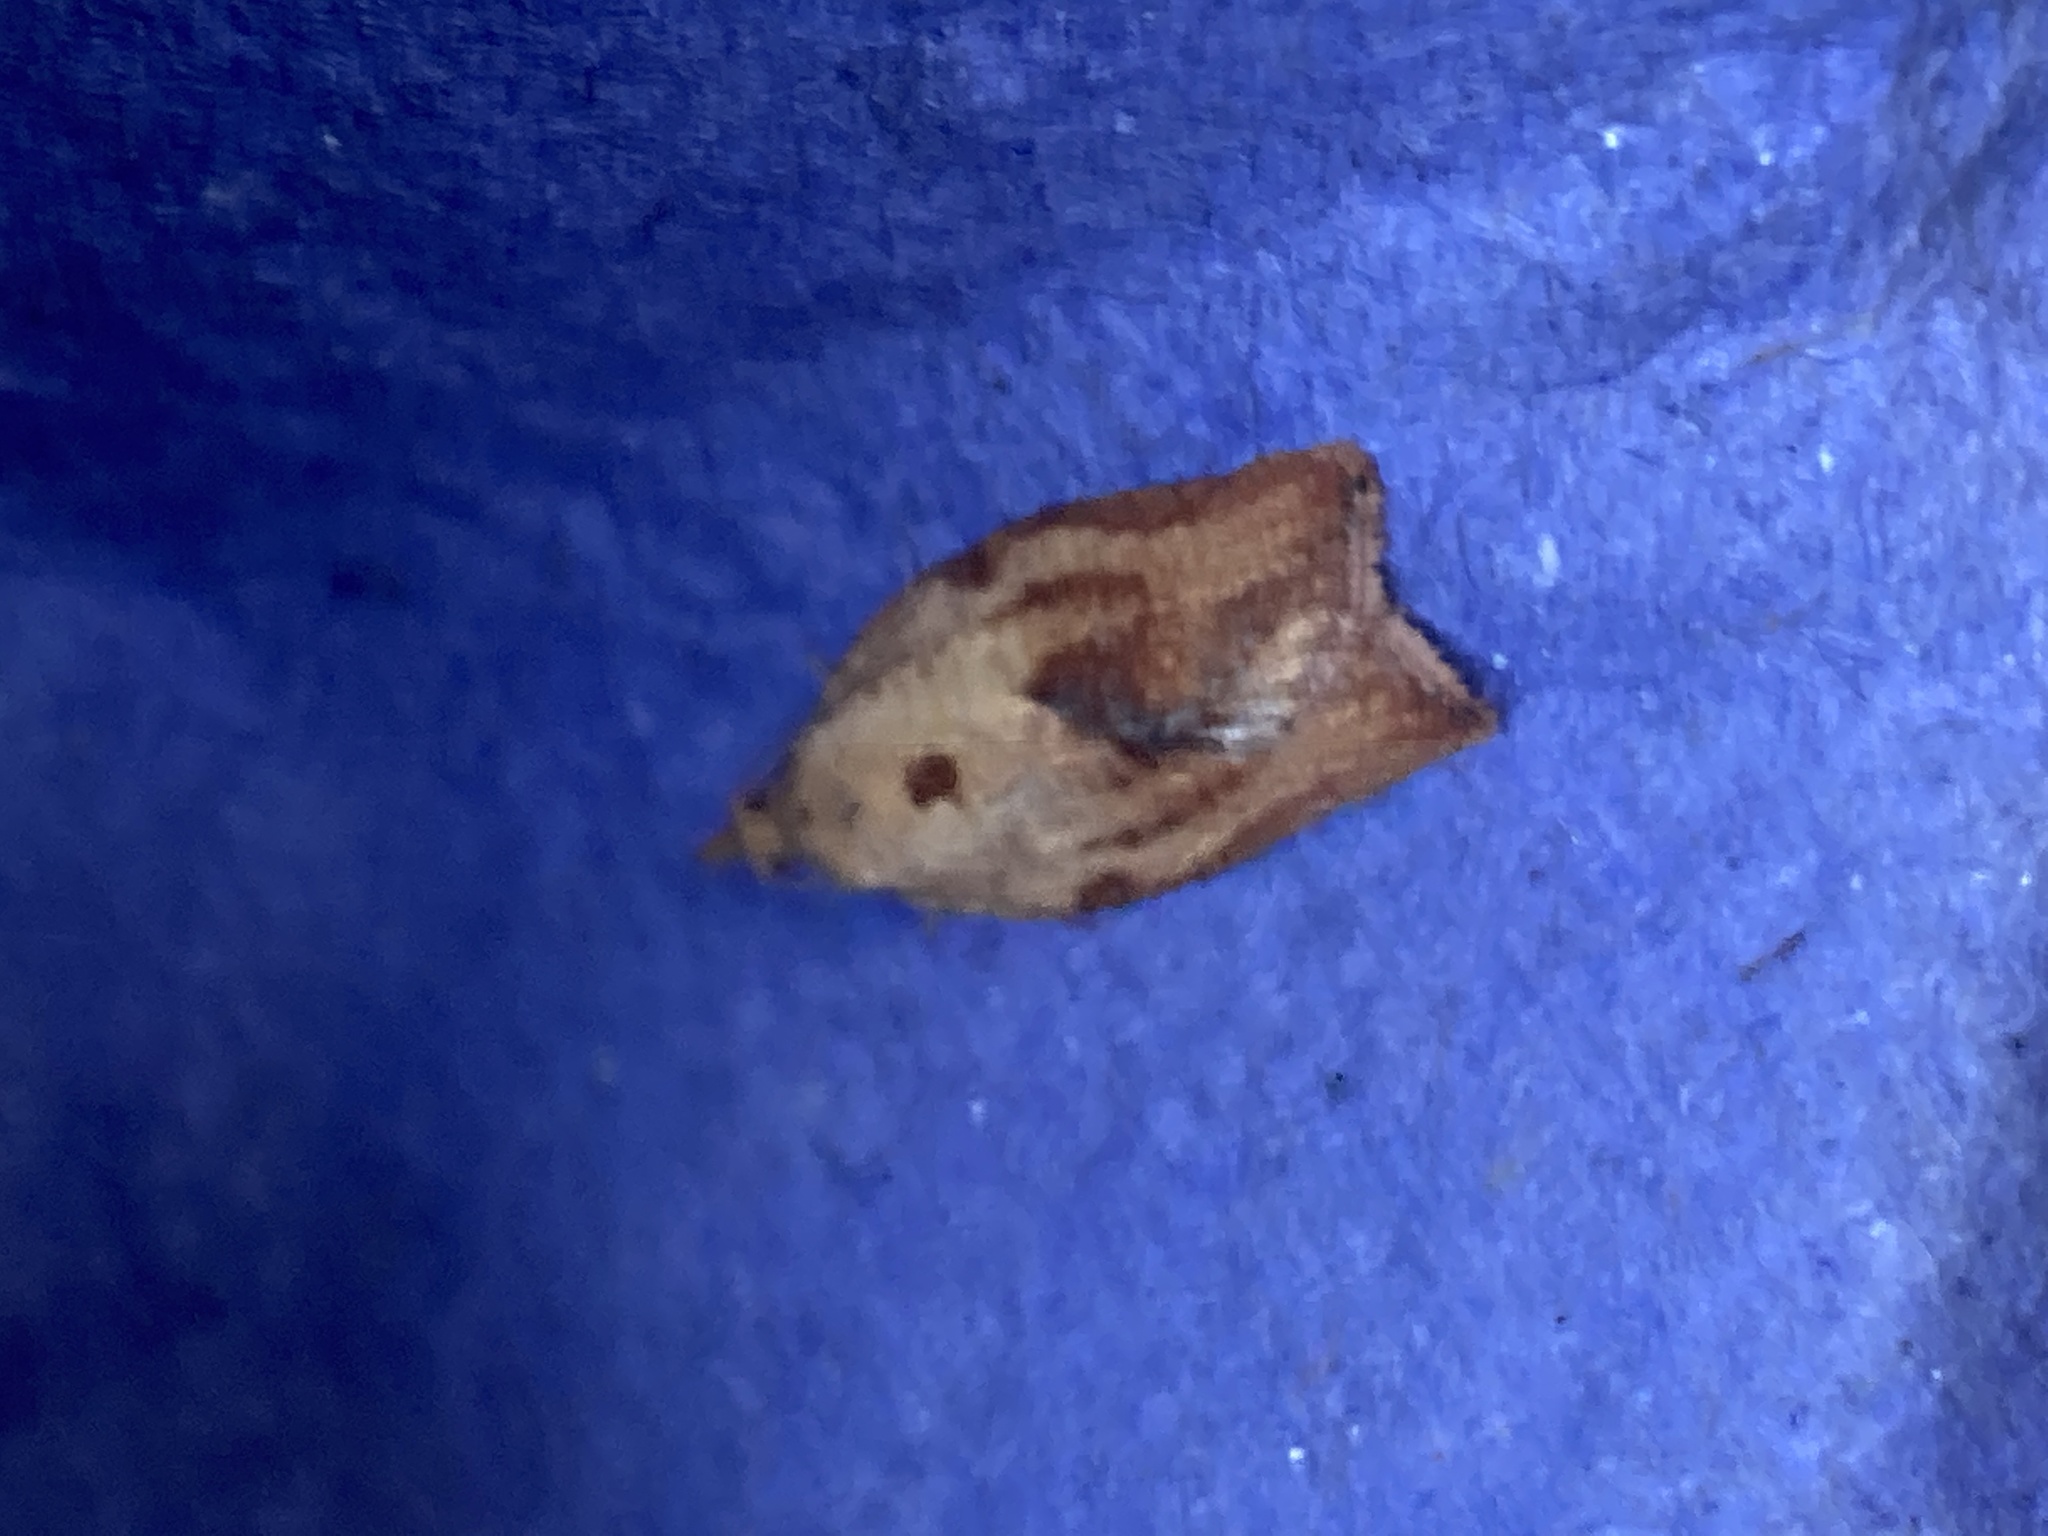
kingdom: Animalia
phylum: Arthropoda
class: Insecta
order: Lepidoptera
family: Tortricidae
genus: Epiphyas
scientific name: Epiphyas postvittana
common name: Light brown apple moth
